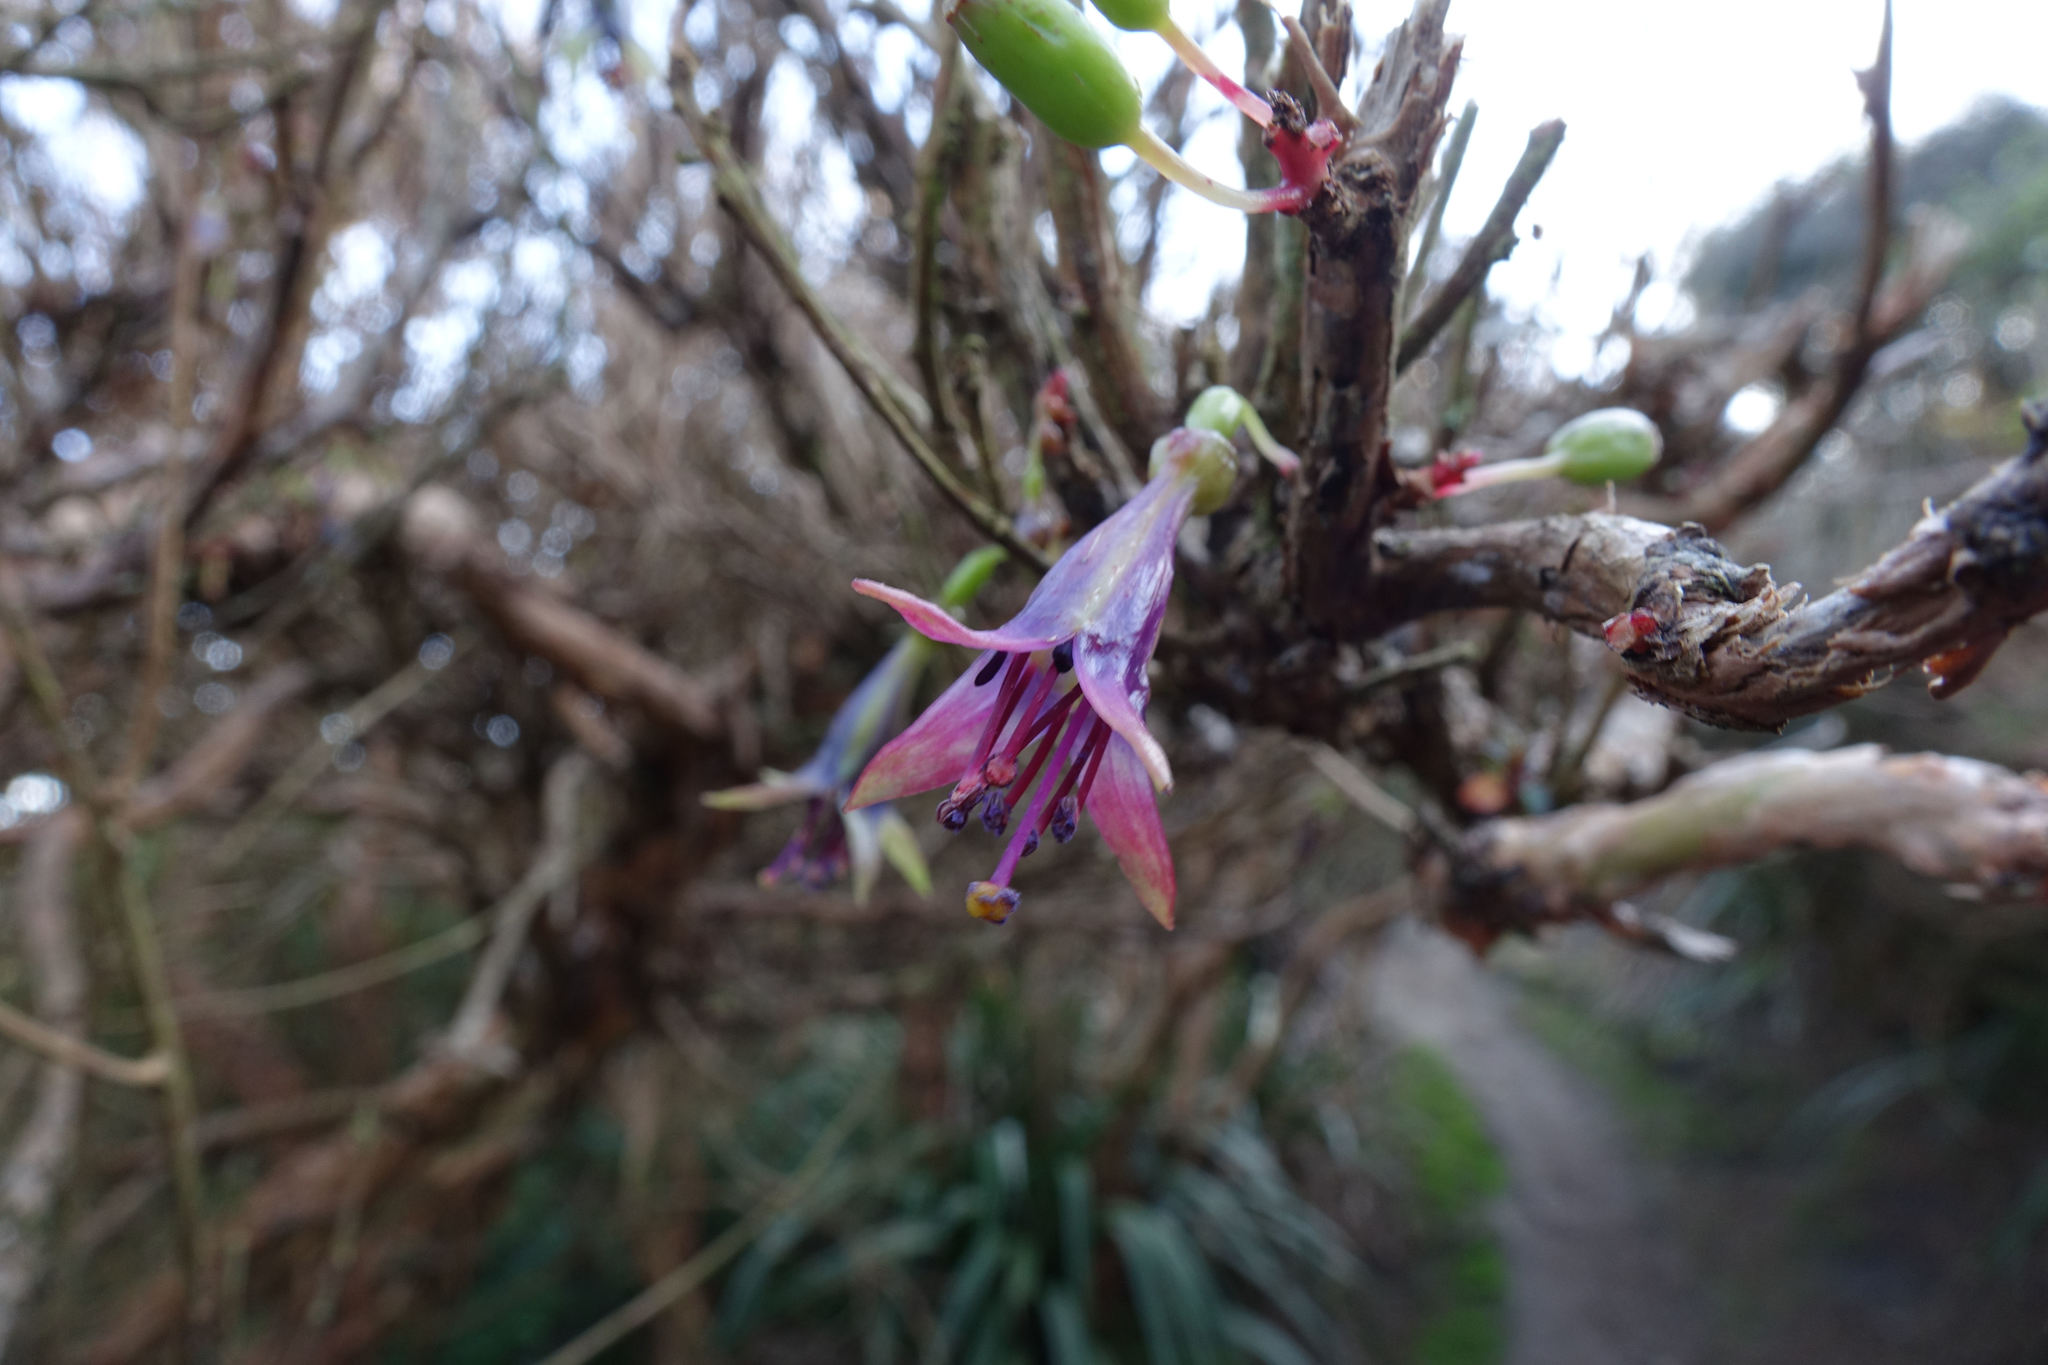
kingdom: Plantae
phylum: Tracheophyta
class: Magnoliopsida
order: Myrtales
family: Onagraceae
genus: Fuchsia
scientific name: Fuchsia excorticata
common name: Tree fuchsia
